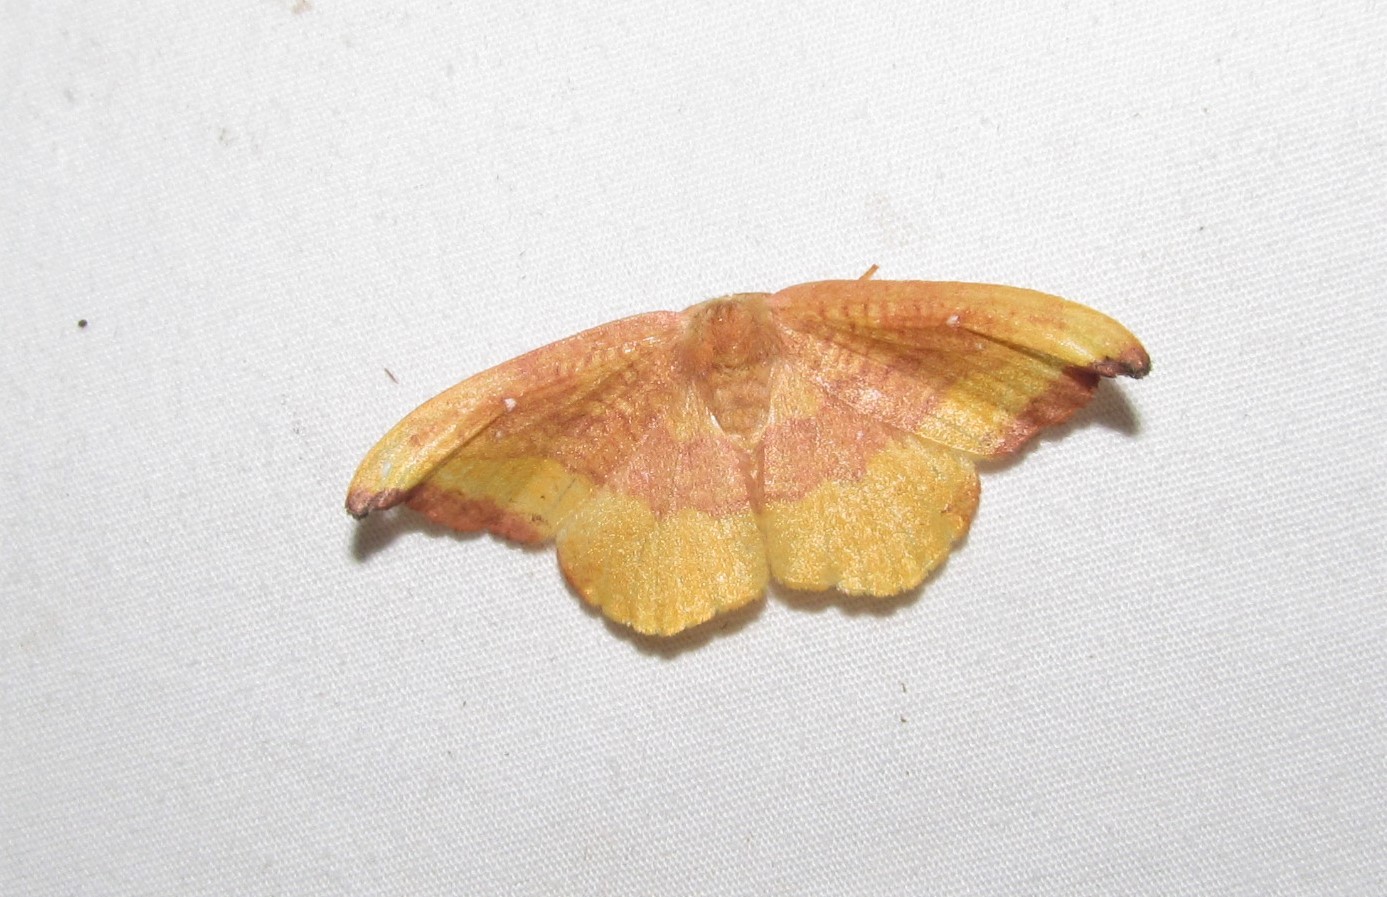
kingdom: Animalia
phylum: Arthropoda
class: Insecta
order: Lepidoptera
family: Drepanidae
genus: Oreta
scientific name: Oreta rosea
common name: Rose hooktip
